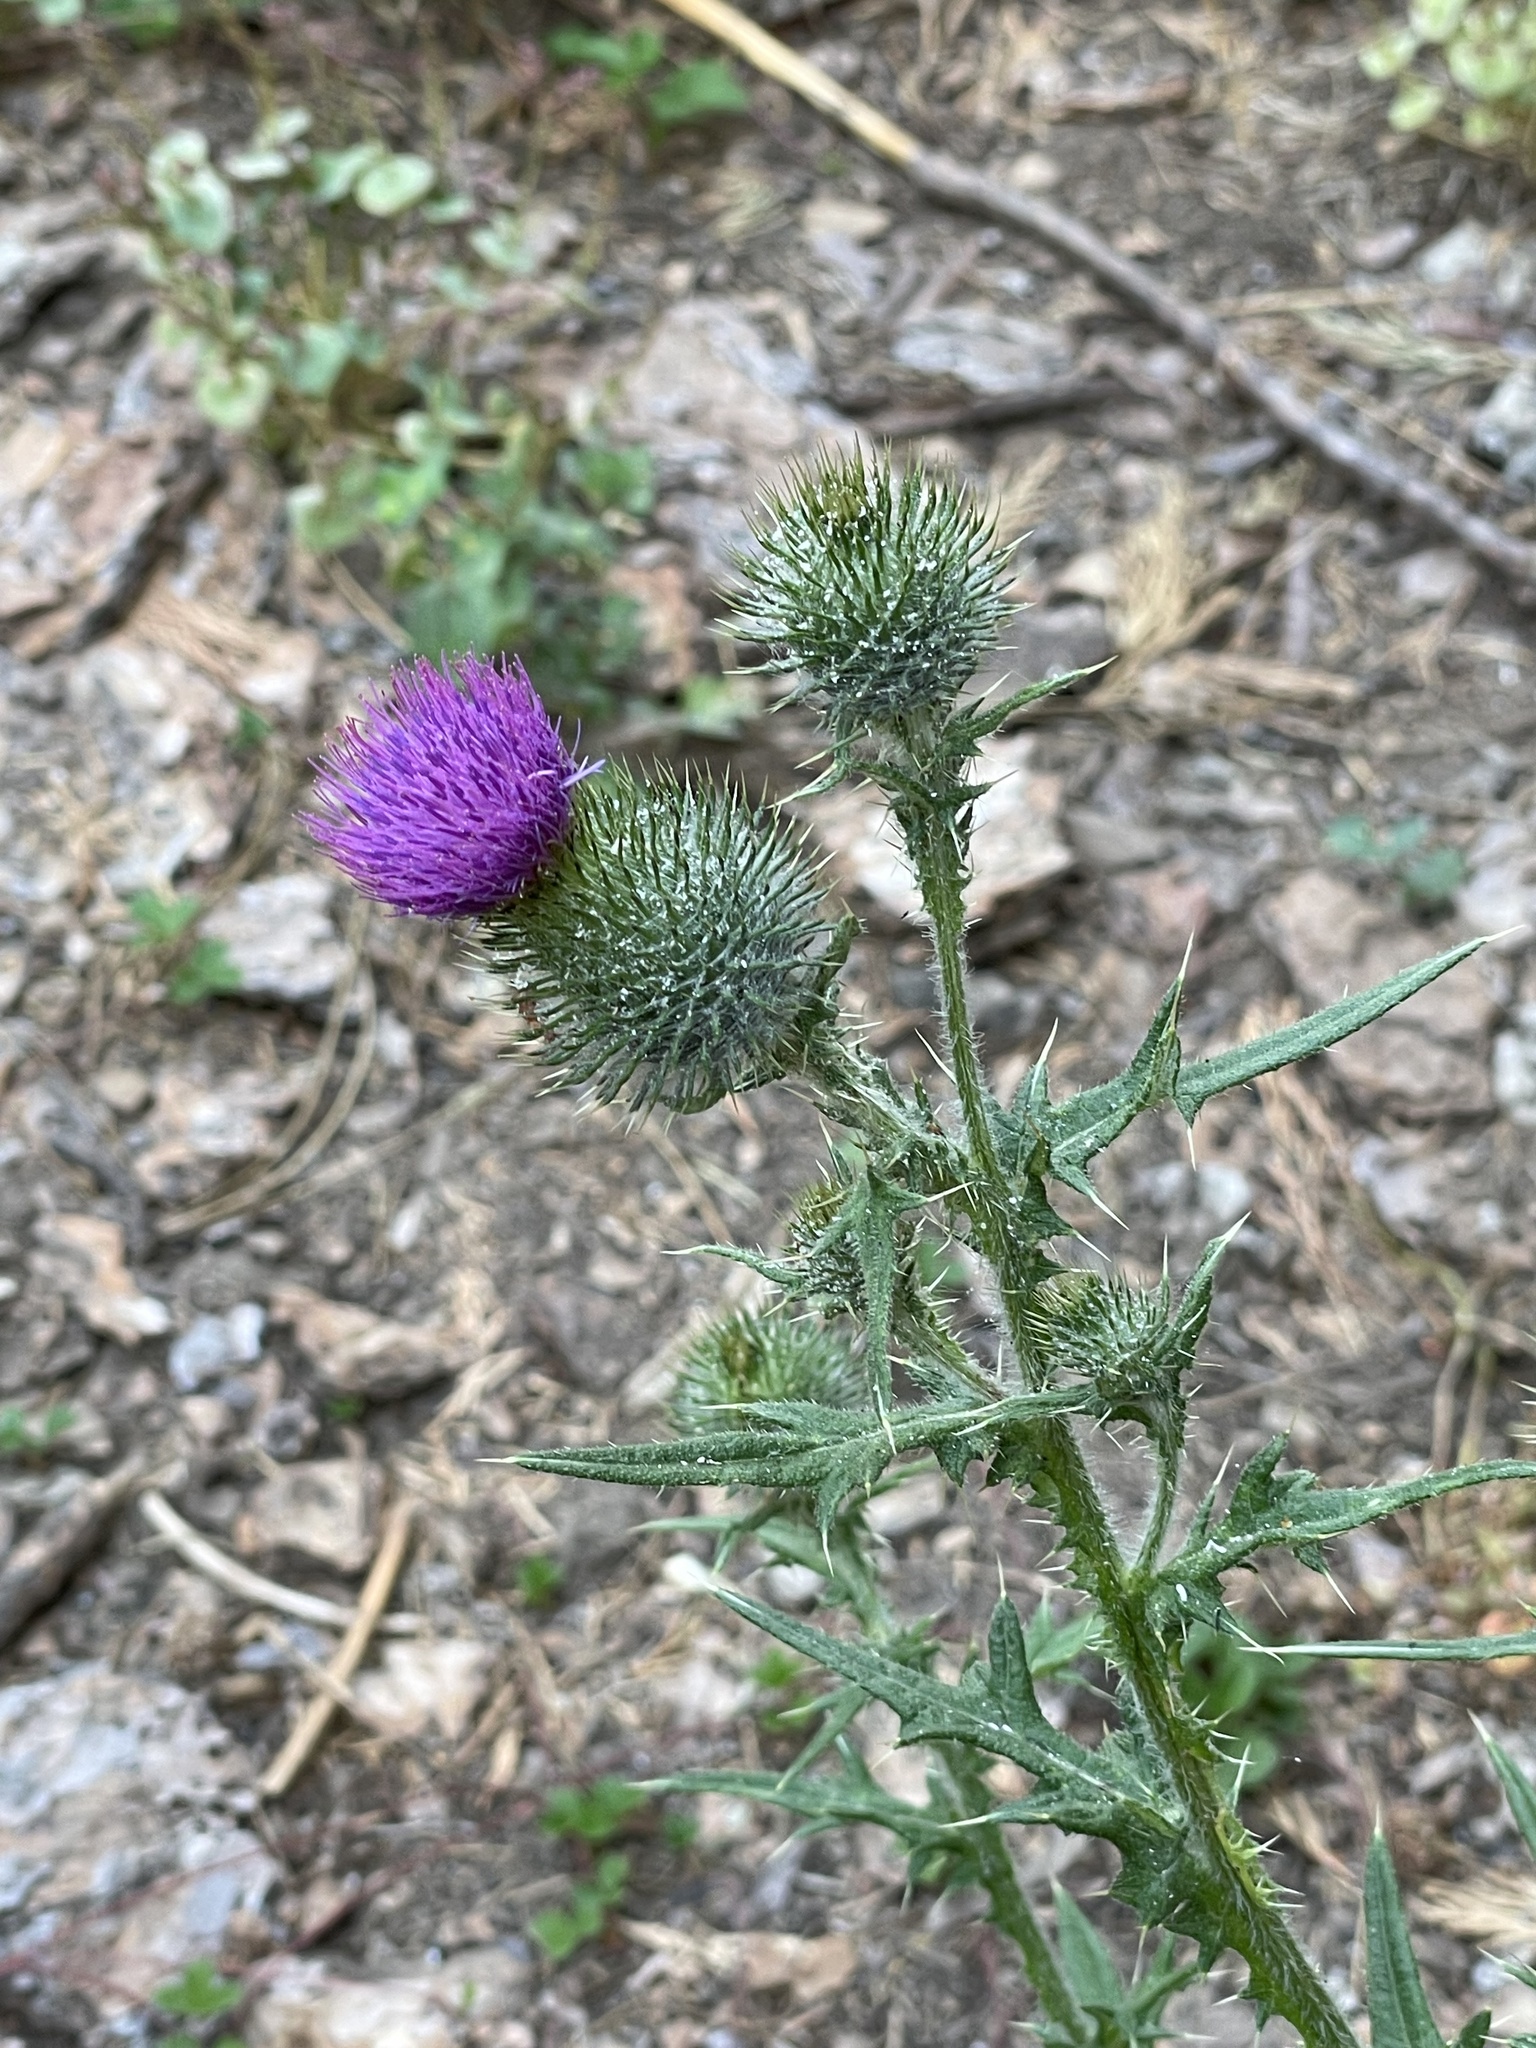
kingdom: Plantae
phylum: Tracheophyta
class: Magnoliopsida
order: Asterales
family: Asteraceae
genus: Cirsium
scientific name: Cirsium vulgare
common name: Bull thistle
